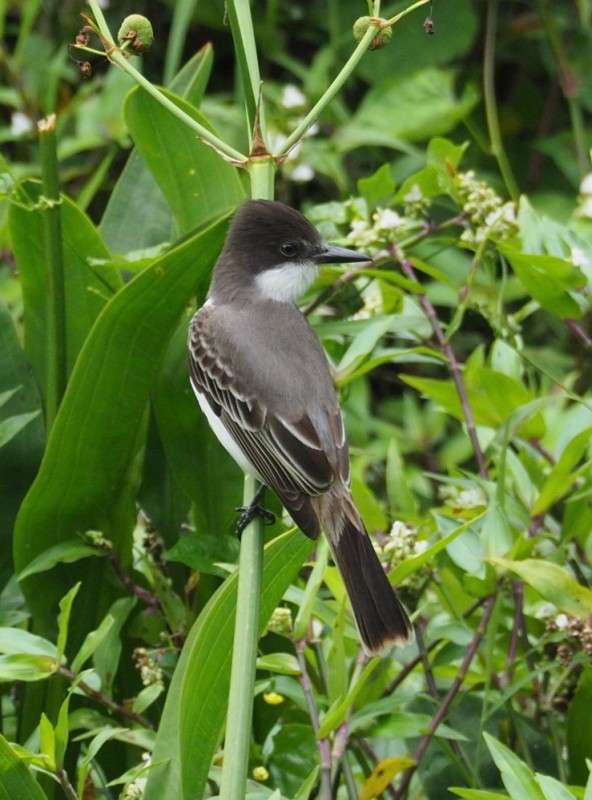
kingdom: Animalia
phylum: Chordata
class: Aves
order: Passeriformes
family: Tyrannidae
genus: Tyrannus
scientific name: Tyrannus caudifasciatus
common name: Loggerhead kingbird
